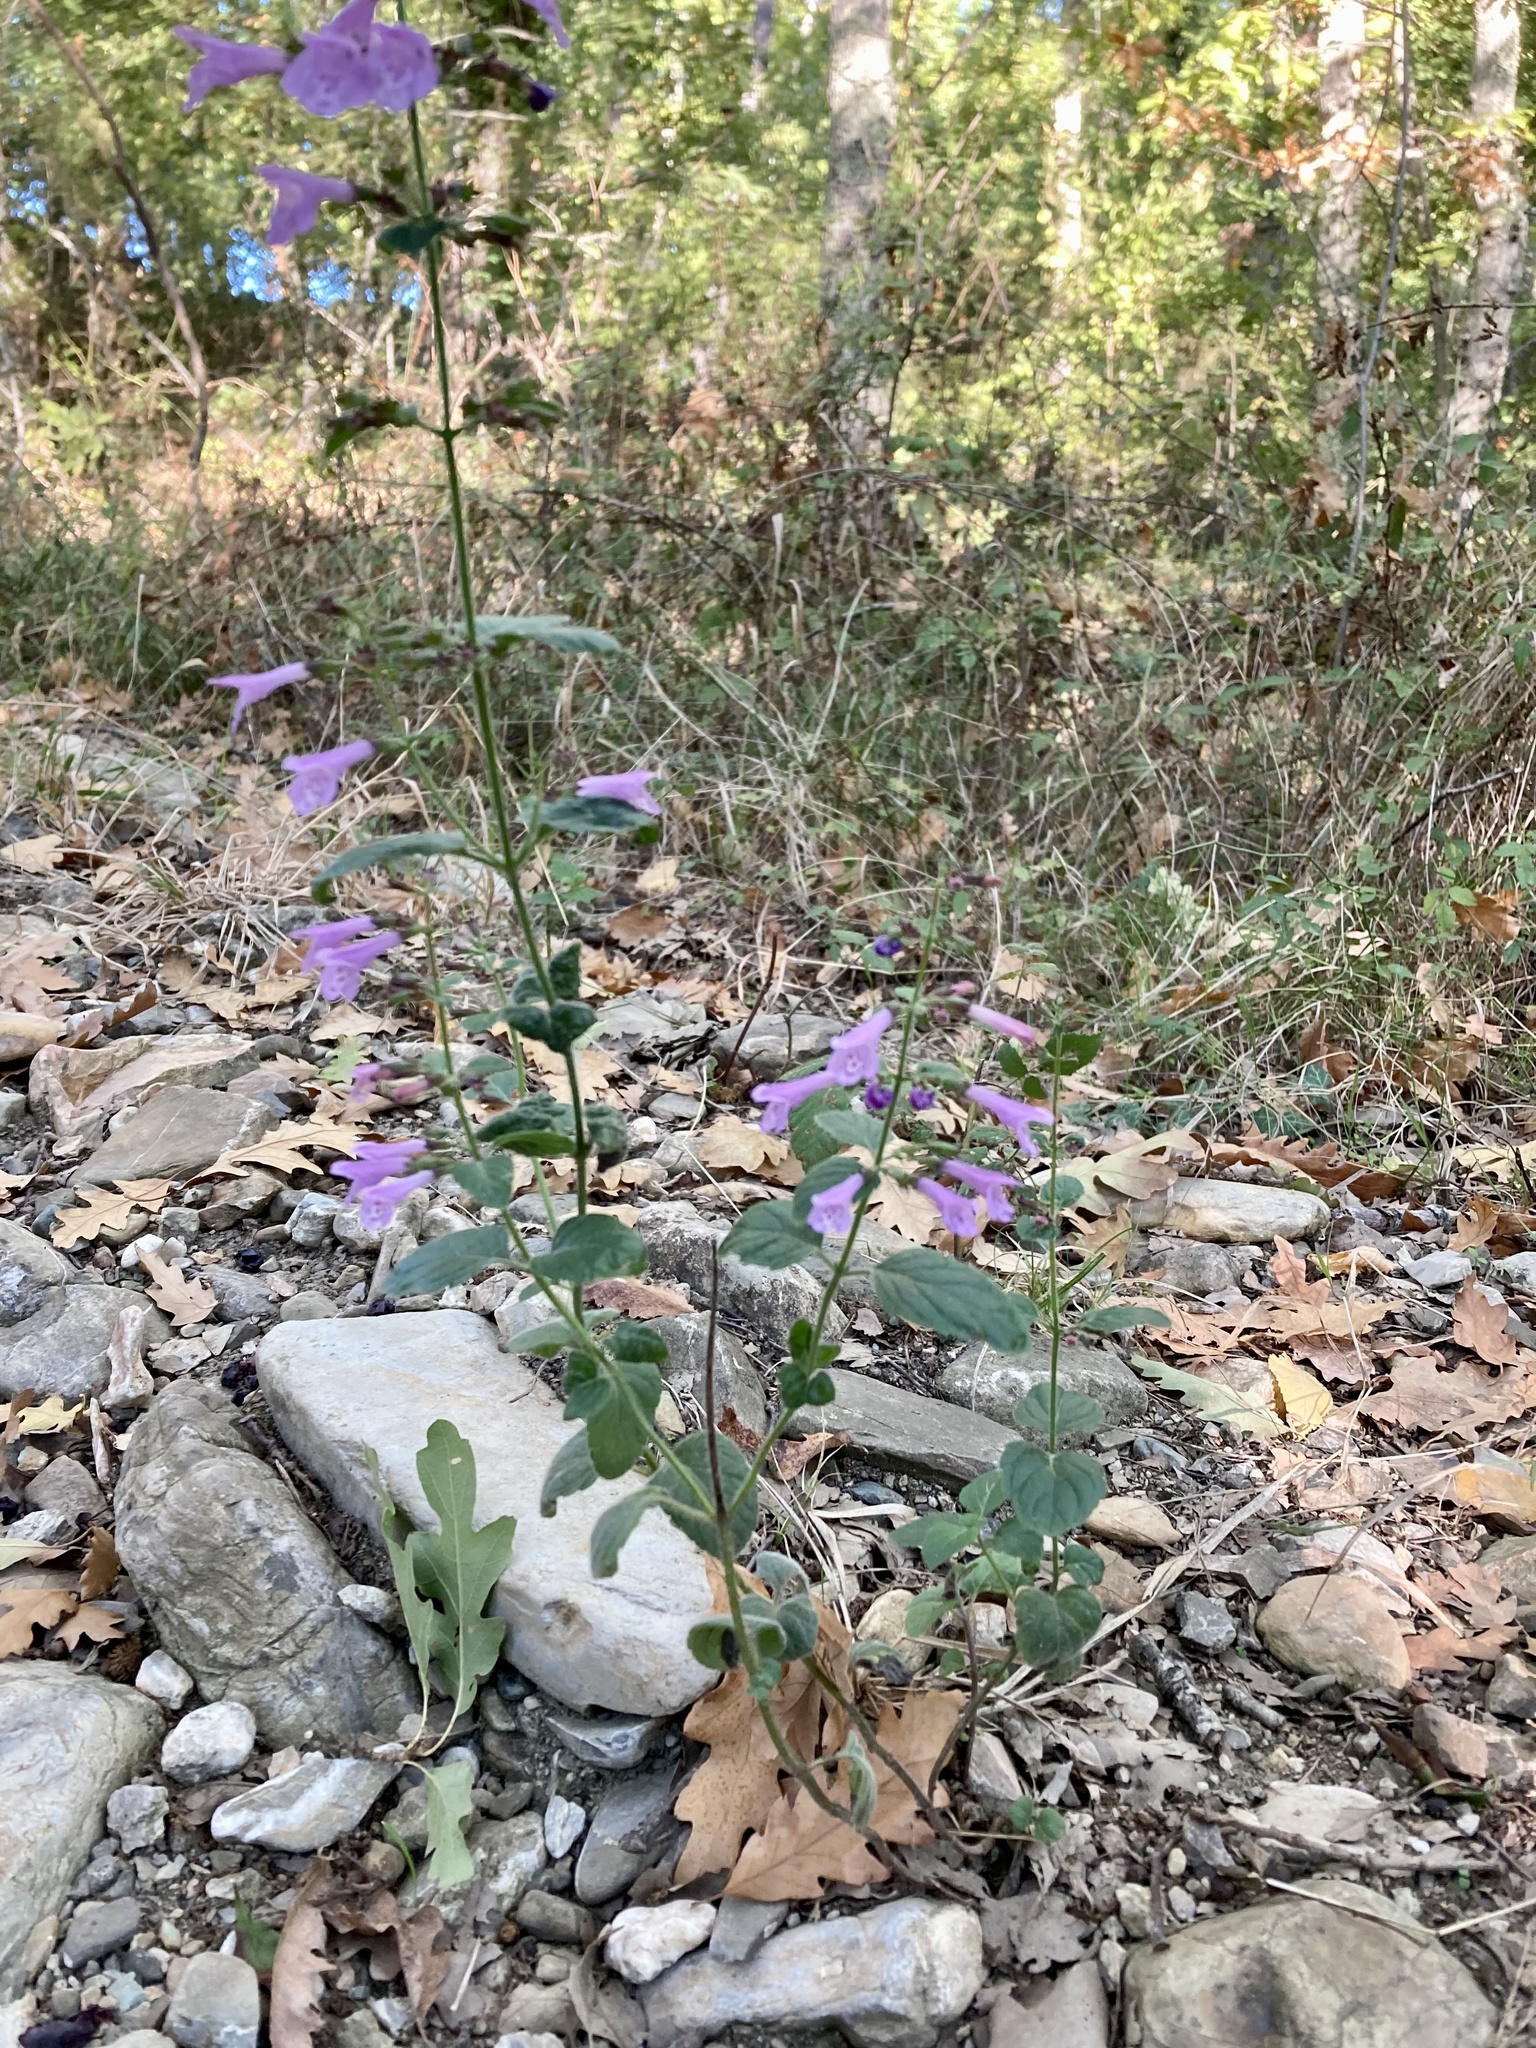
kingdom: Plantae
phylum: Tracheophyta
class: Magnoliopsida
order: Lamiales
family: Lamiaceae
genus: Clinopodium
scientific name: Clinopodium menthifolium
